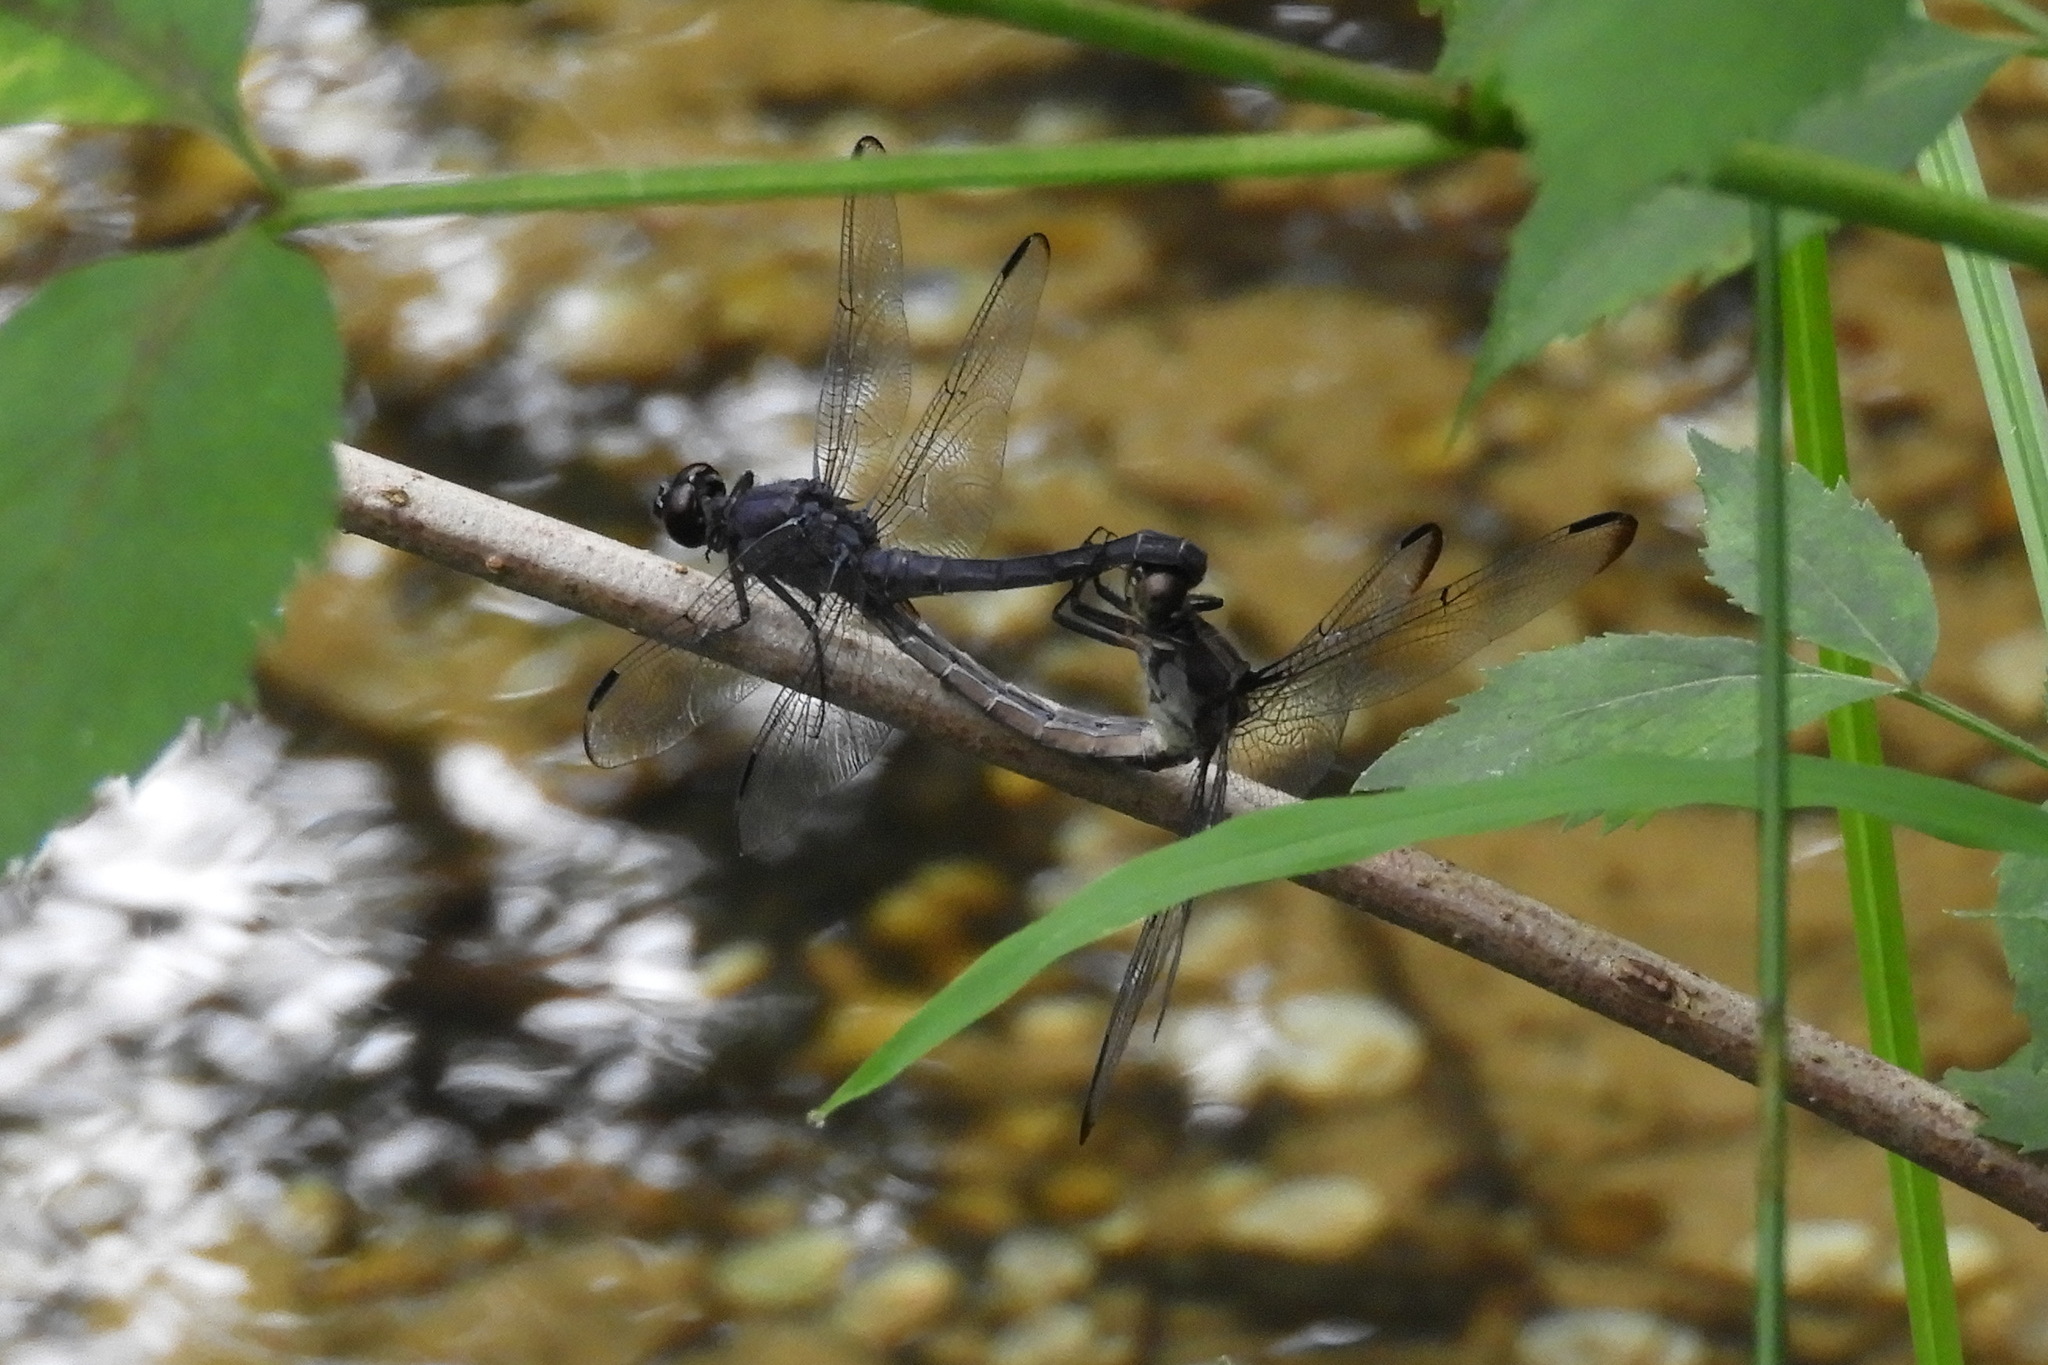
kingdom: Animalia
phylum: Arthropoda
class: Insecta
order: Odonata
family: Libellulidae
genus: Libellula
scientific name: Libellula incesta
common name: Slaty skimmer
